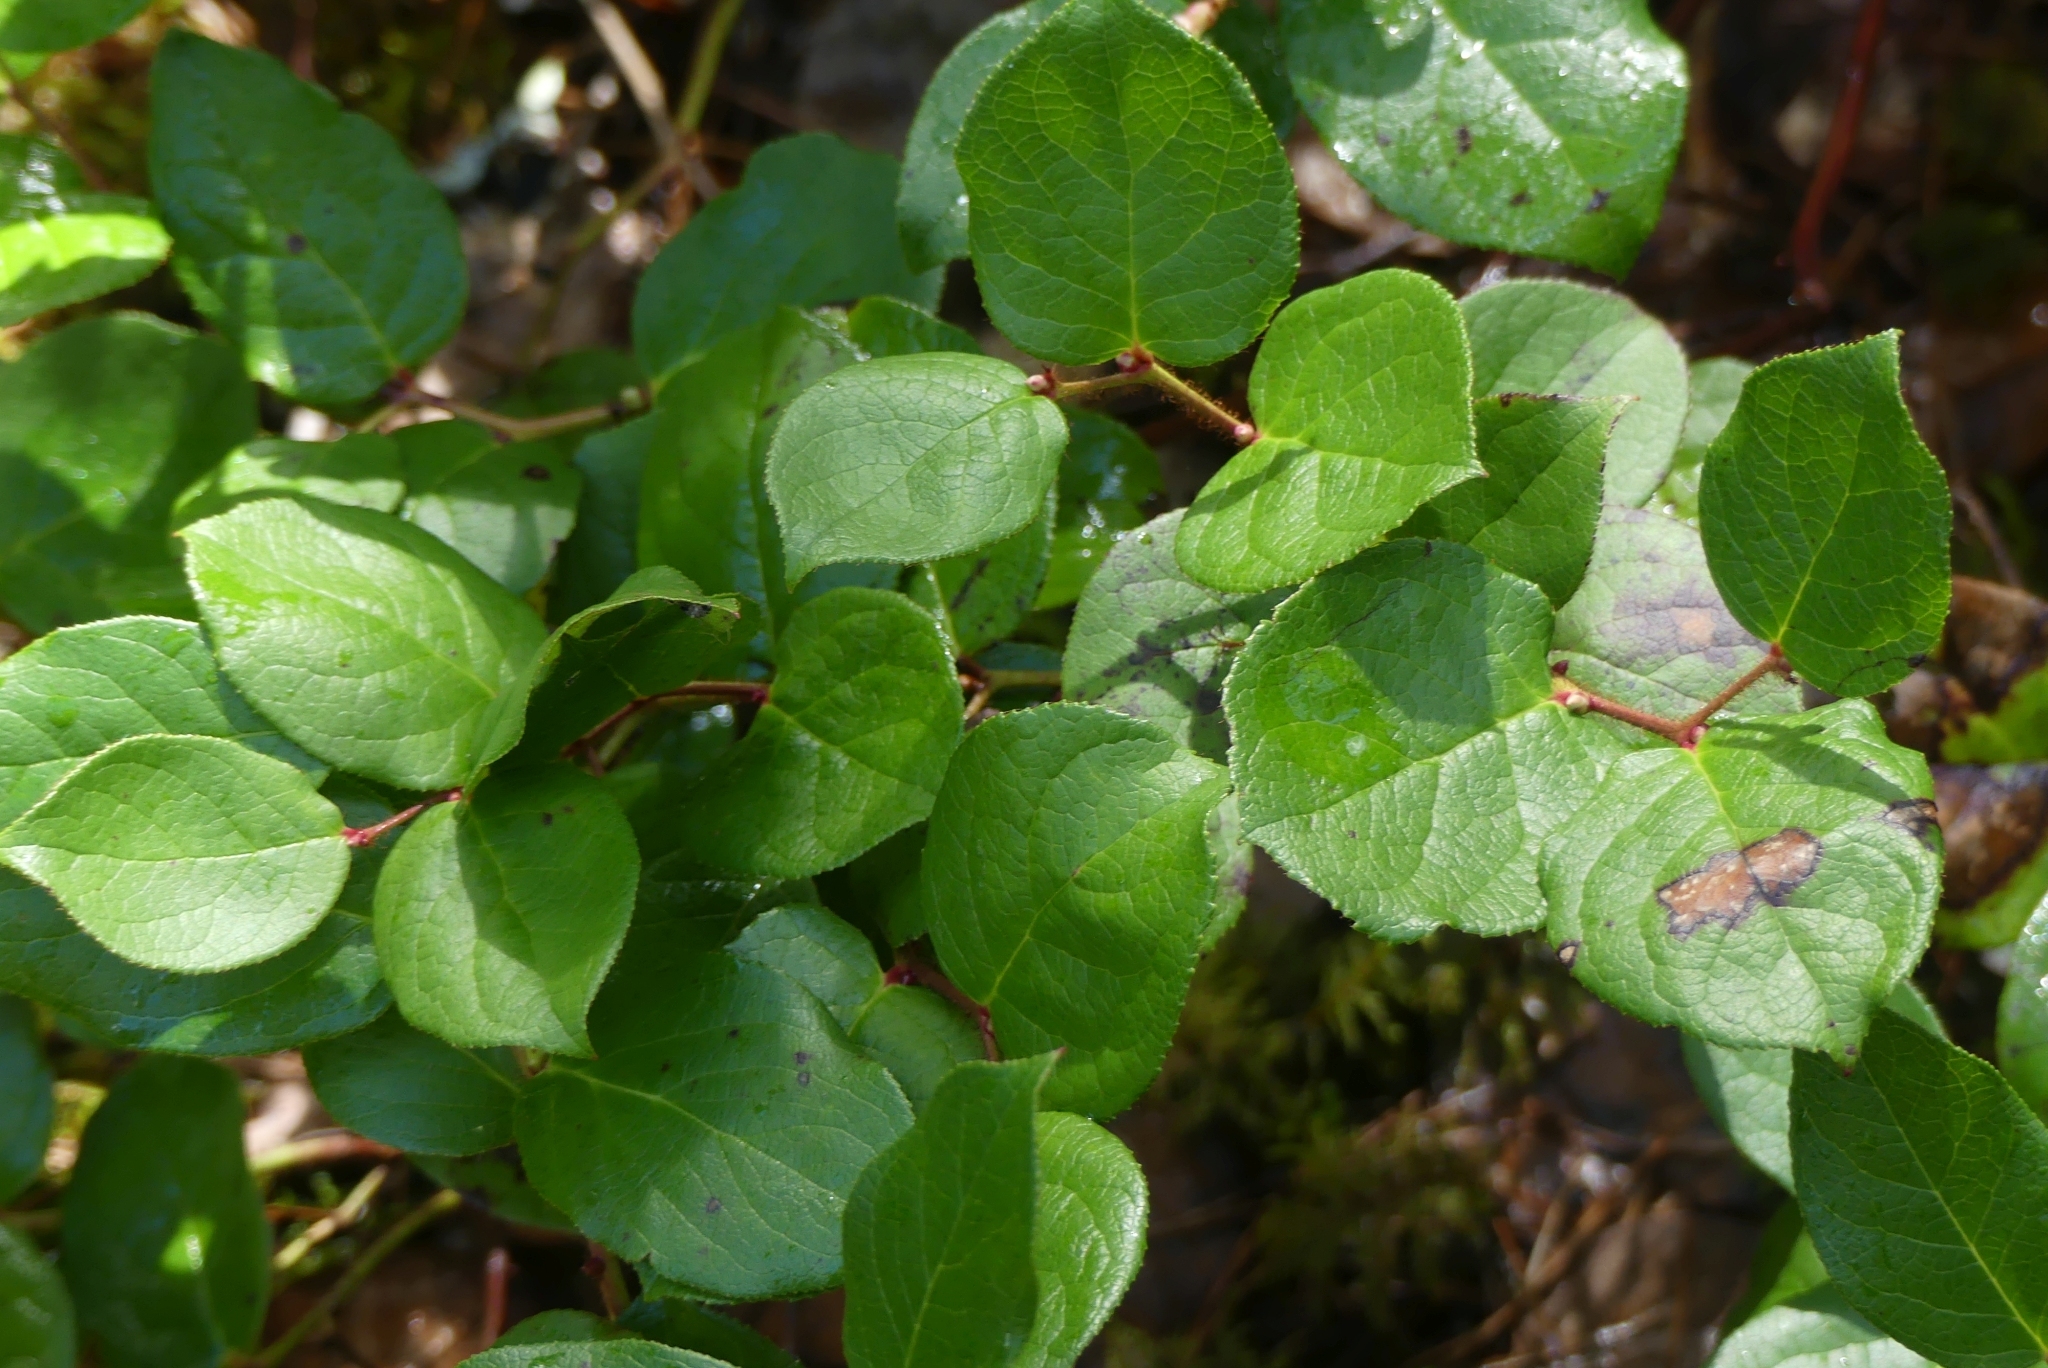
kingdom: Plantae
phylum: Tracheophyta
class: Magnoliopsida
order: Ericales
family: Ericaceae
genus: Gaultheria
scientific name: Gaultheria shallon
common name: Shallon
